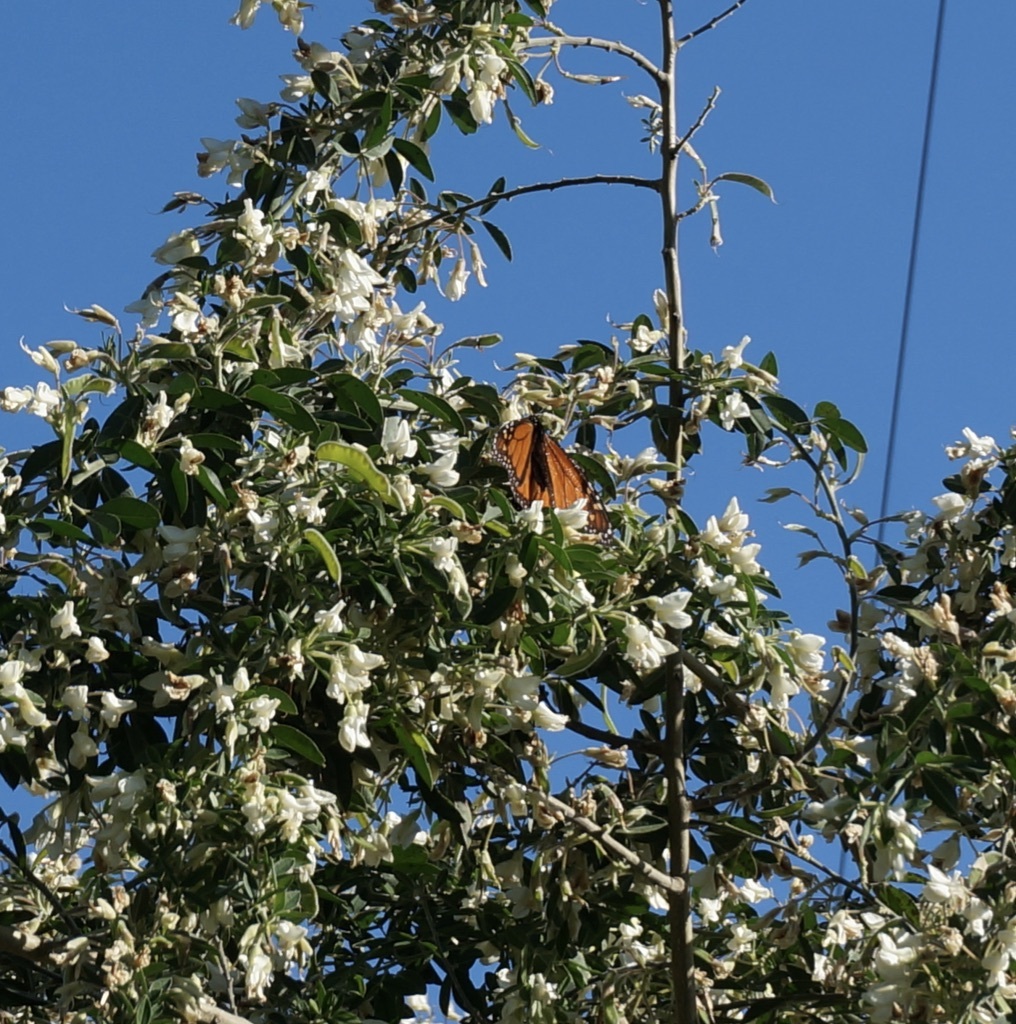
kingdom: Animalia
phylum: Arthropoda
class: Insecta
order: Lepidoptera
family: Nymphalidae
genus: Danaus
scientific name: Danaus plexippus
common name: Monarch
